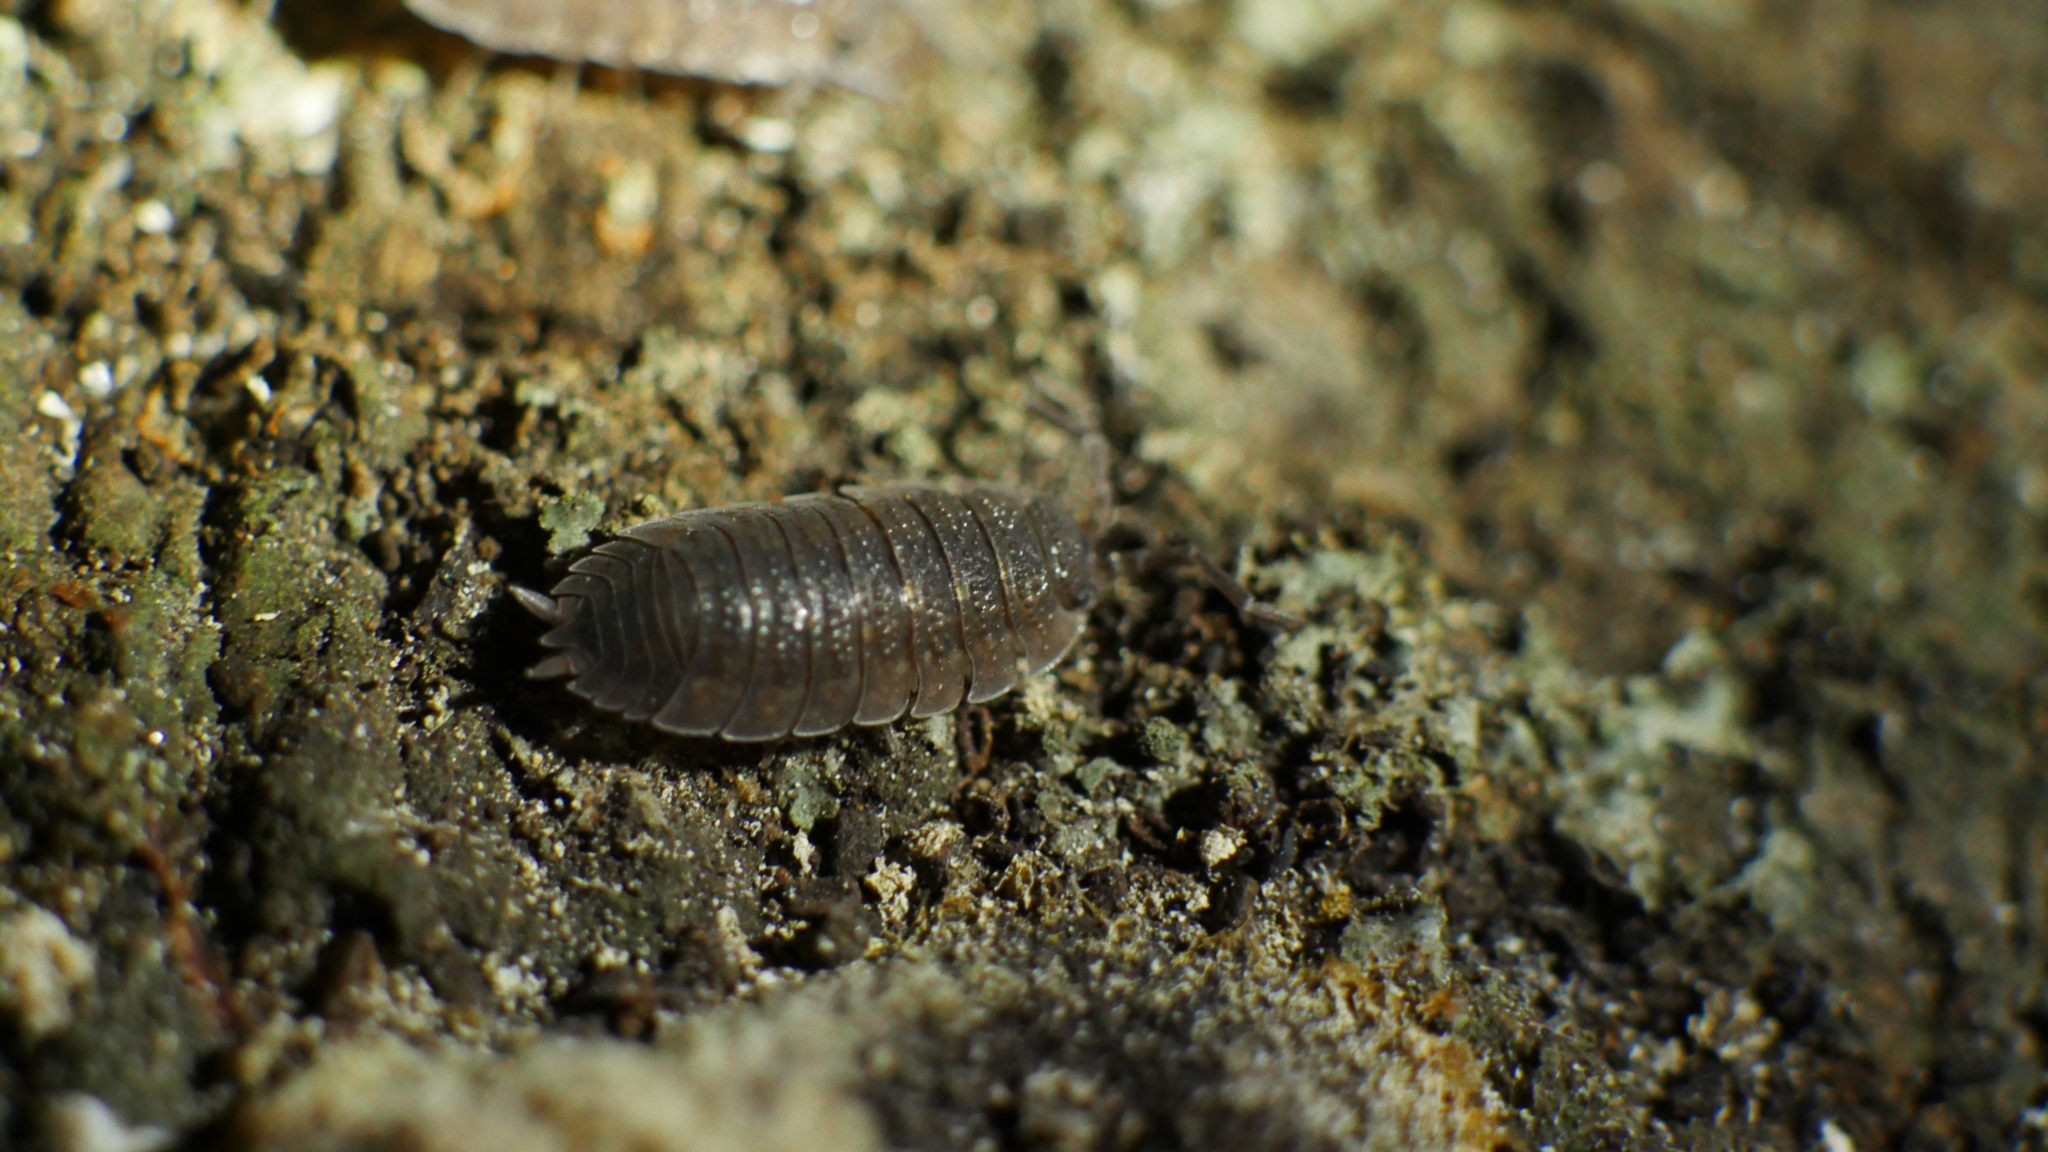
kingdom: Animalia
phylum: Arthropoda
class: Malacostraca
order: Isopoda
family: Porcellionidae
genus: Porcellio
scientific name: Porcellio scaber
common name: Common rough woodlouse
